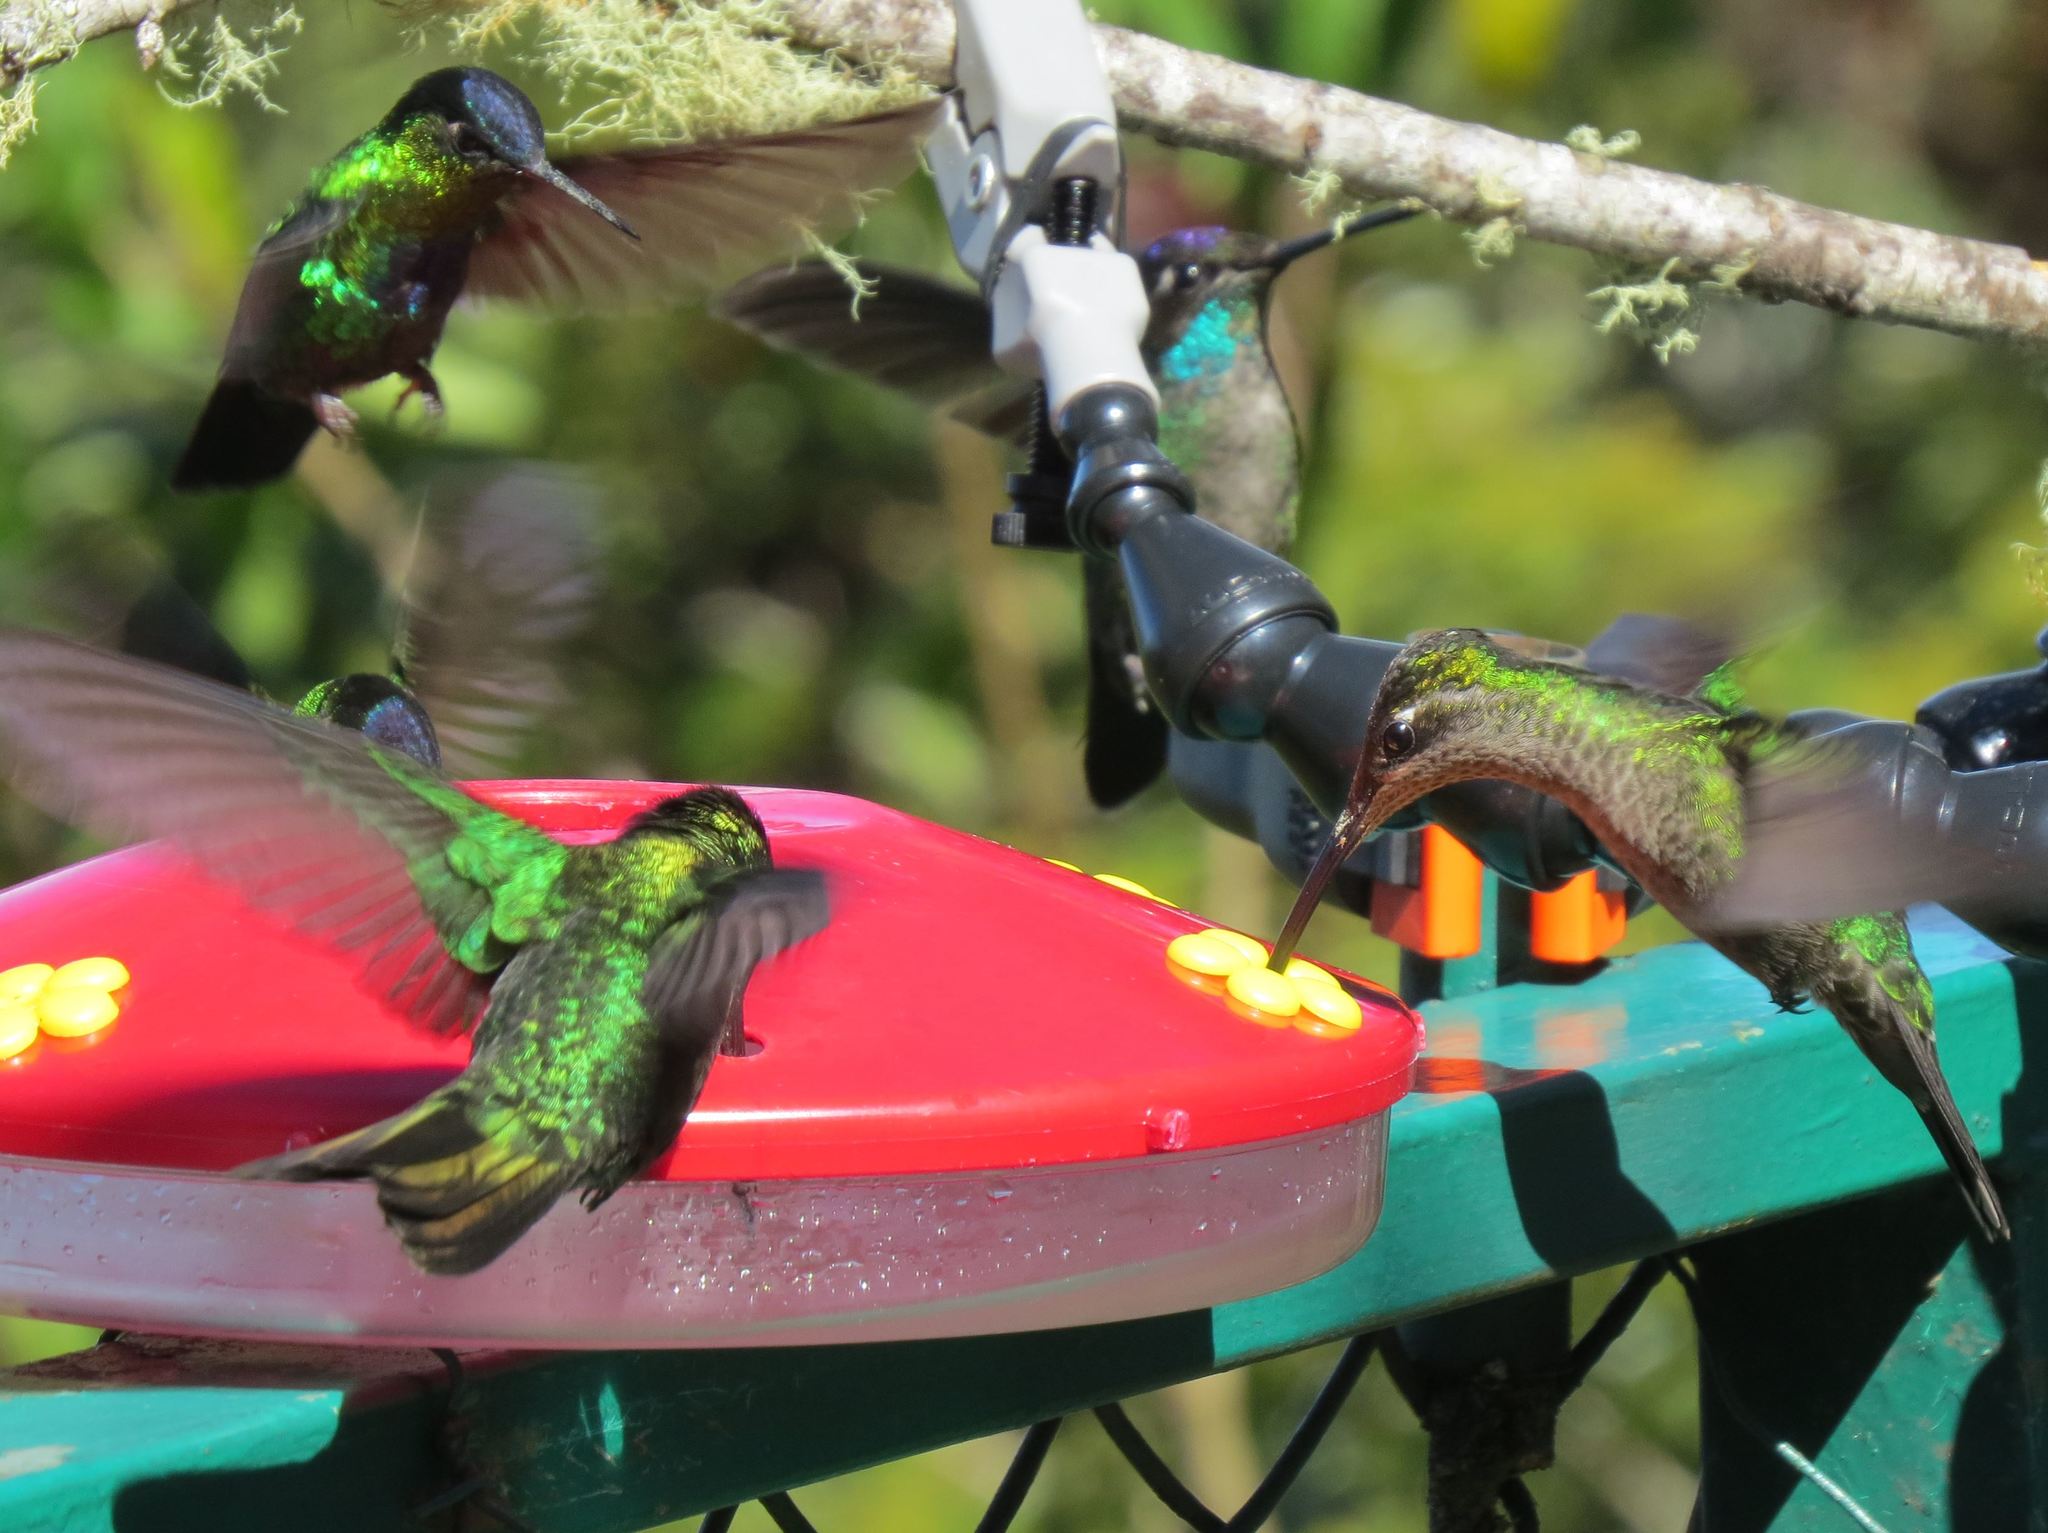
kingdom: Animalia
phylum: Chordata
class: Aves
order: Apodiformes
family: Trochilidae
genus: Eugenes
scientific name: Eugenes spectabilis
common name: Talamanca hummingbird
